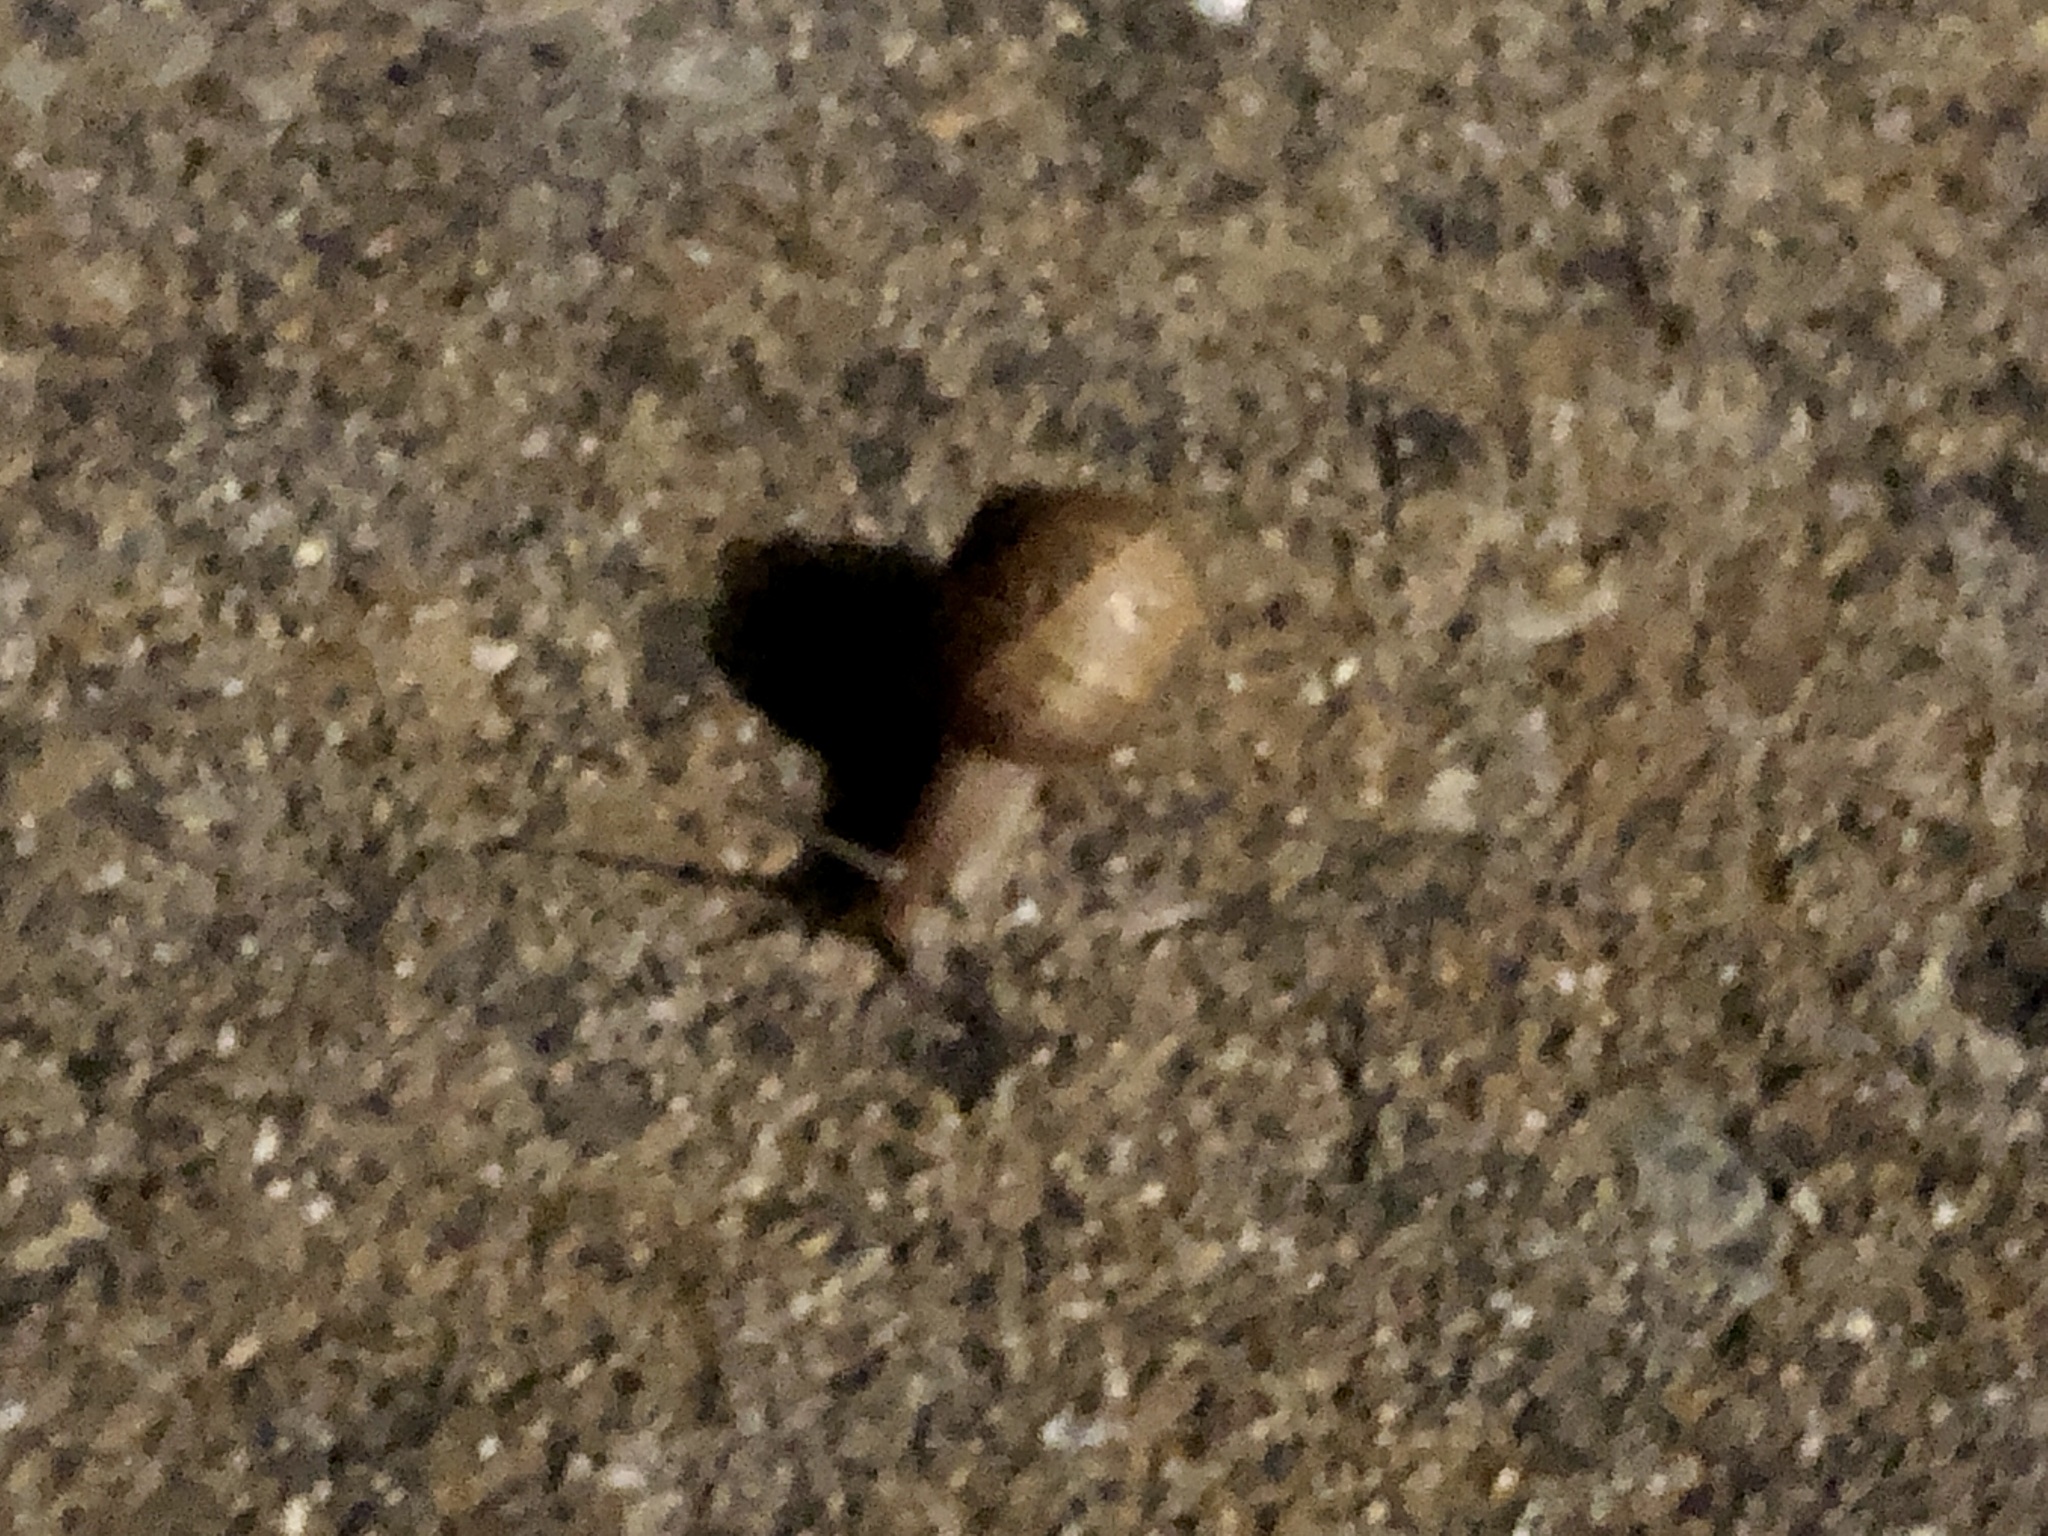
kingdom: Animalia
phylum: Mollusca
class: Gastropoda
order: Stylommatophora
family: Helicidae
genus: Cornu
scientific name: Cornu aspersum
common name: Brown garden snail
